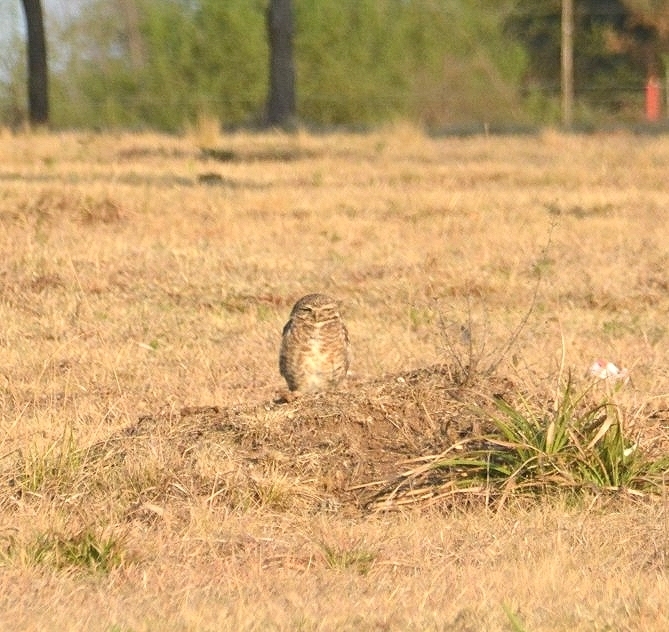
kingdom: Animalia
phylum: Chordata
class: Aves
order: Strigiformes
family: Strigidae
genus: Athene
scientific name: Athene cunicularia
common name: Burrowing owl
